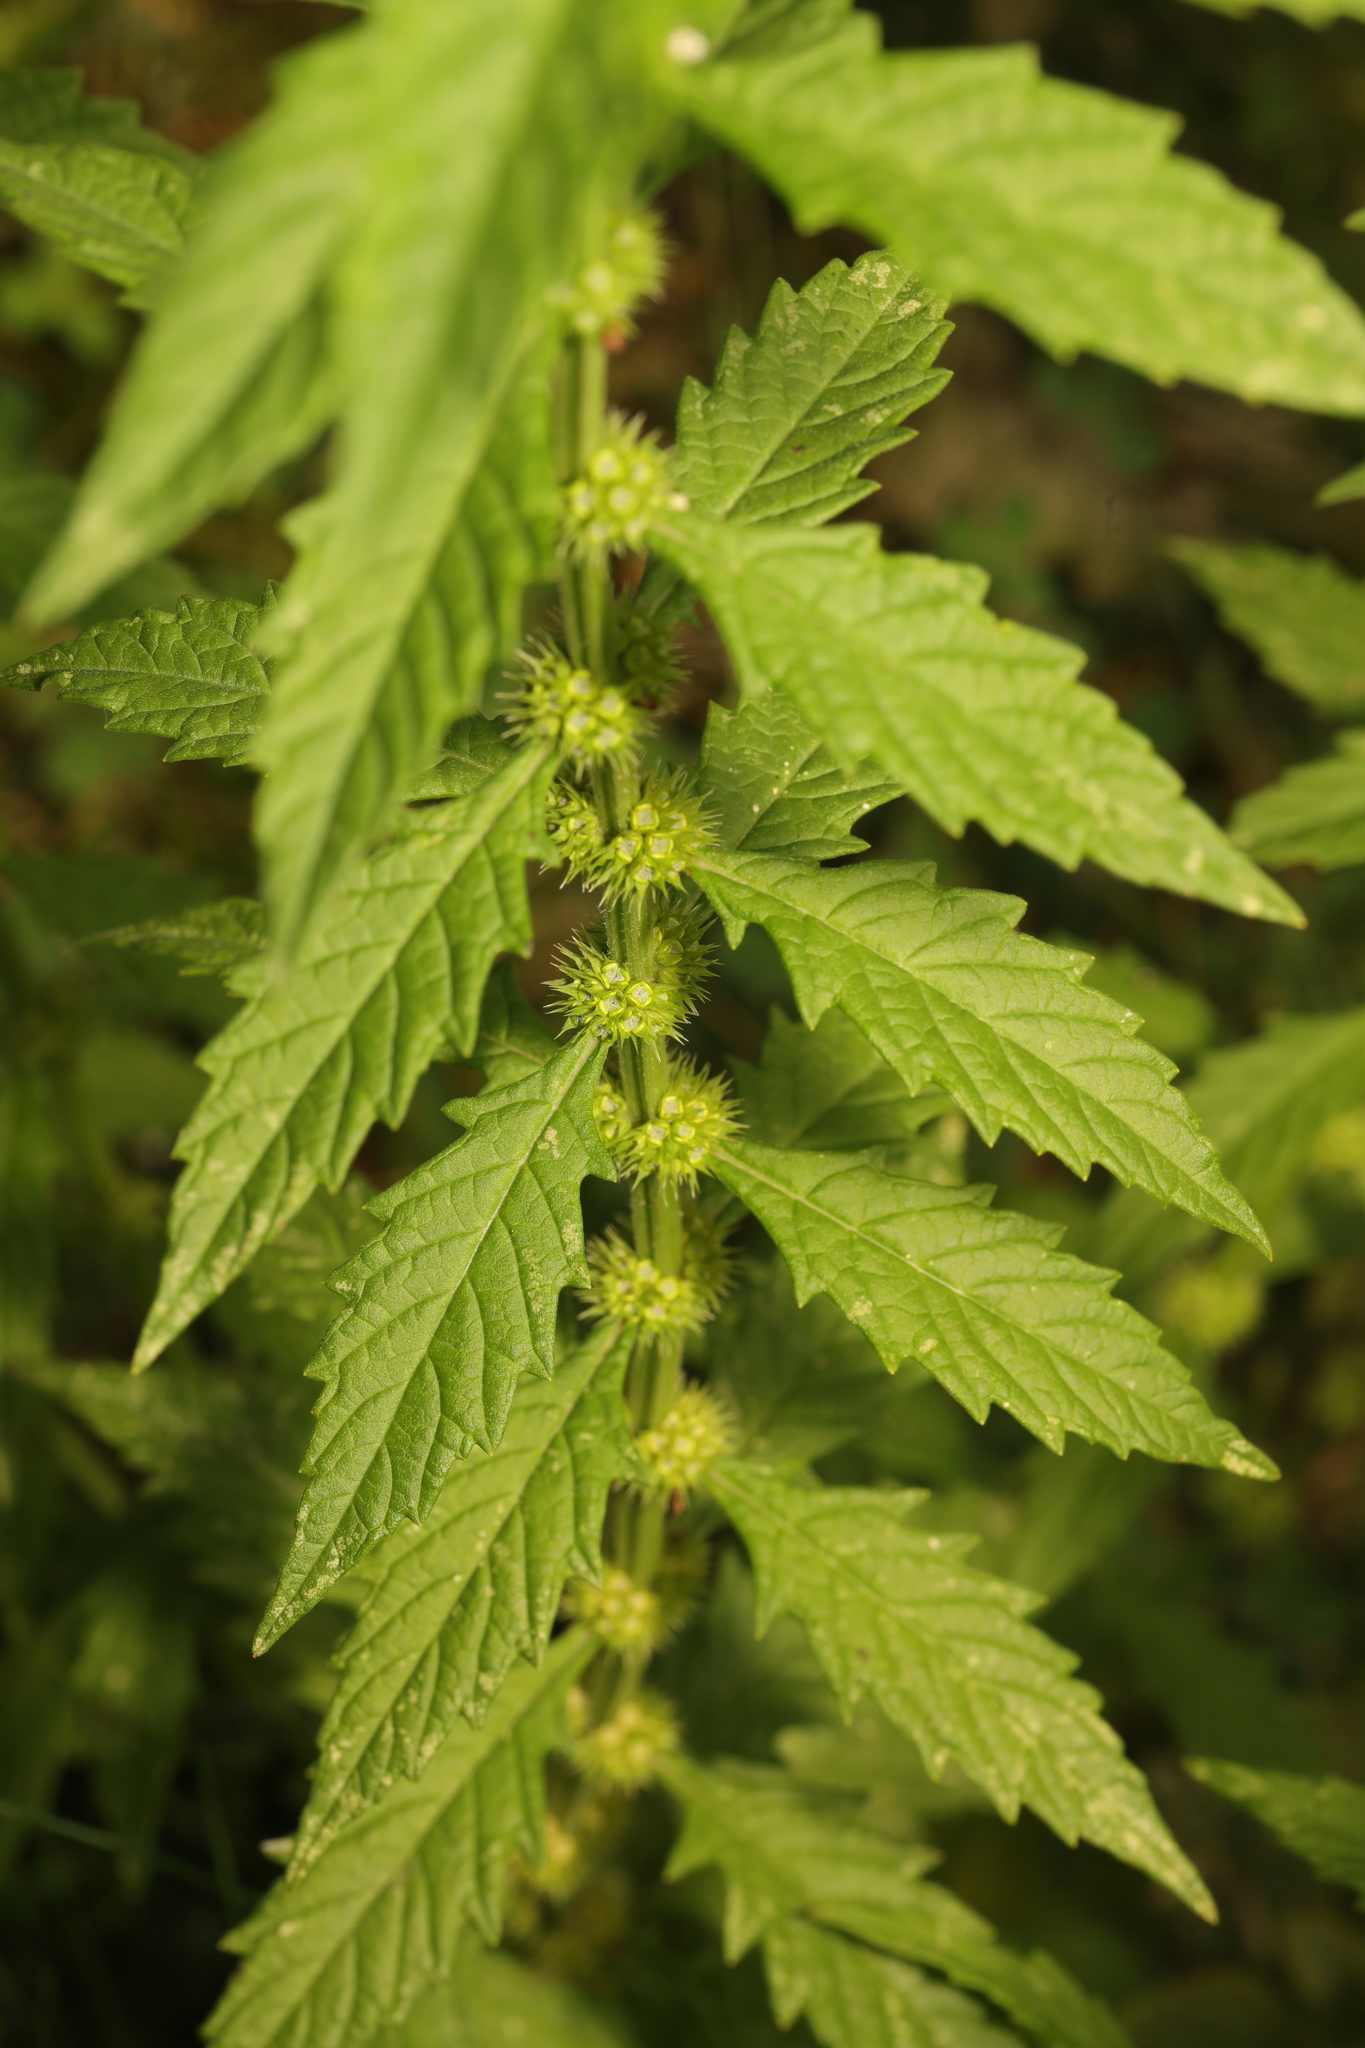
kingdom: Plantae
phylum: Tracheophyta
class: Magnoliopsida
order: Lamiales
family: Lamiaceae
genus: Lycopus
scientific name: Lycopus europaeus
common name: European bugleweed
